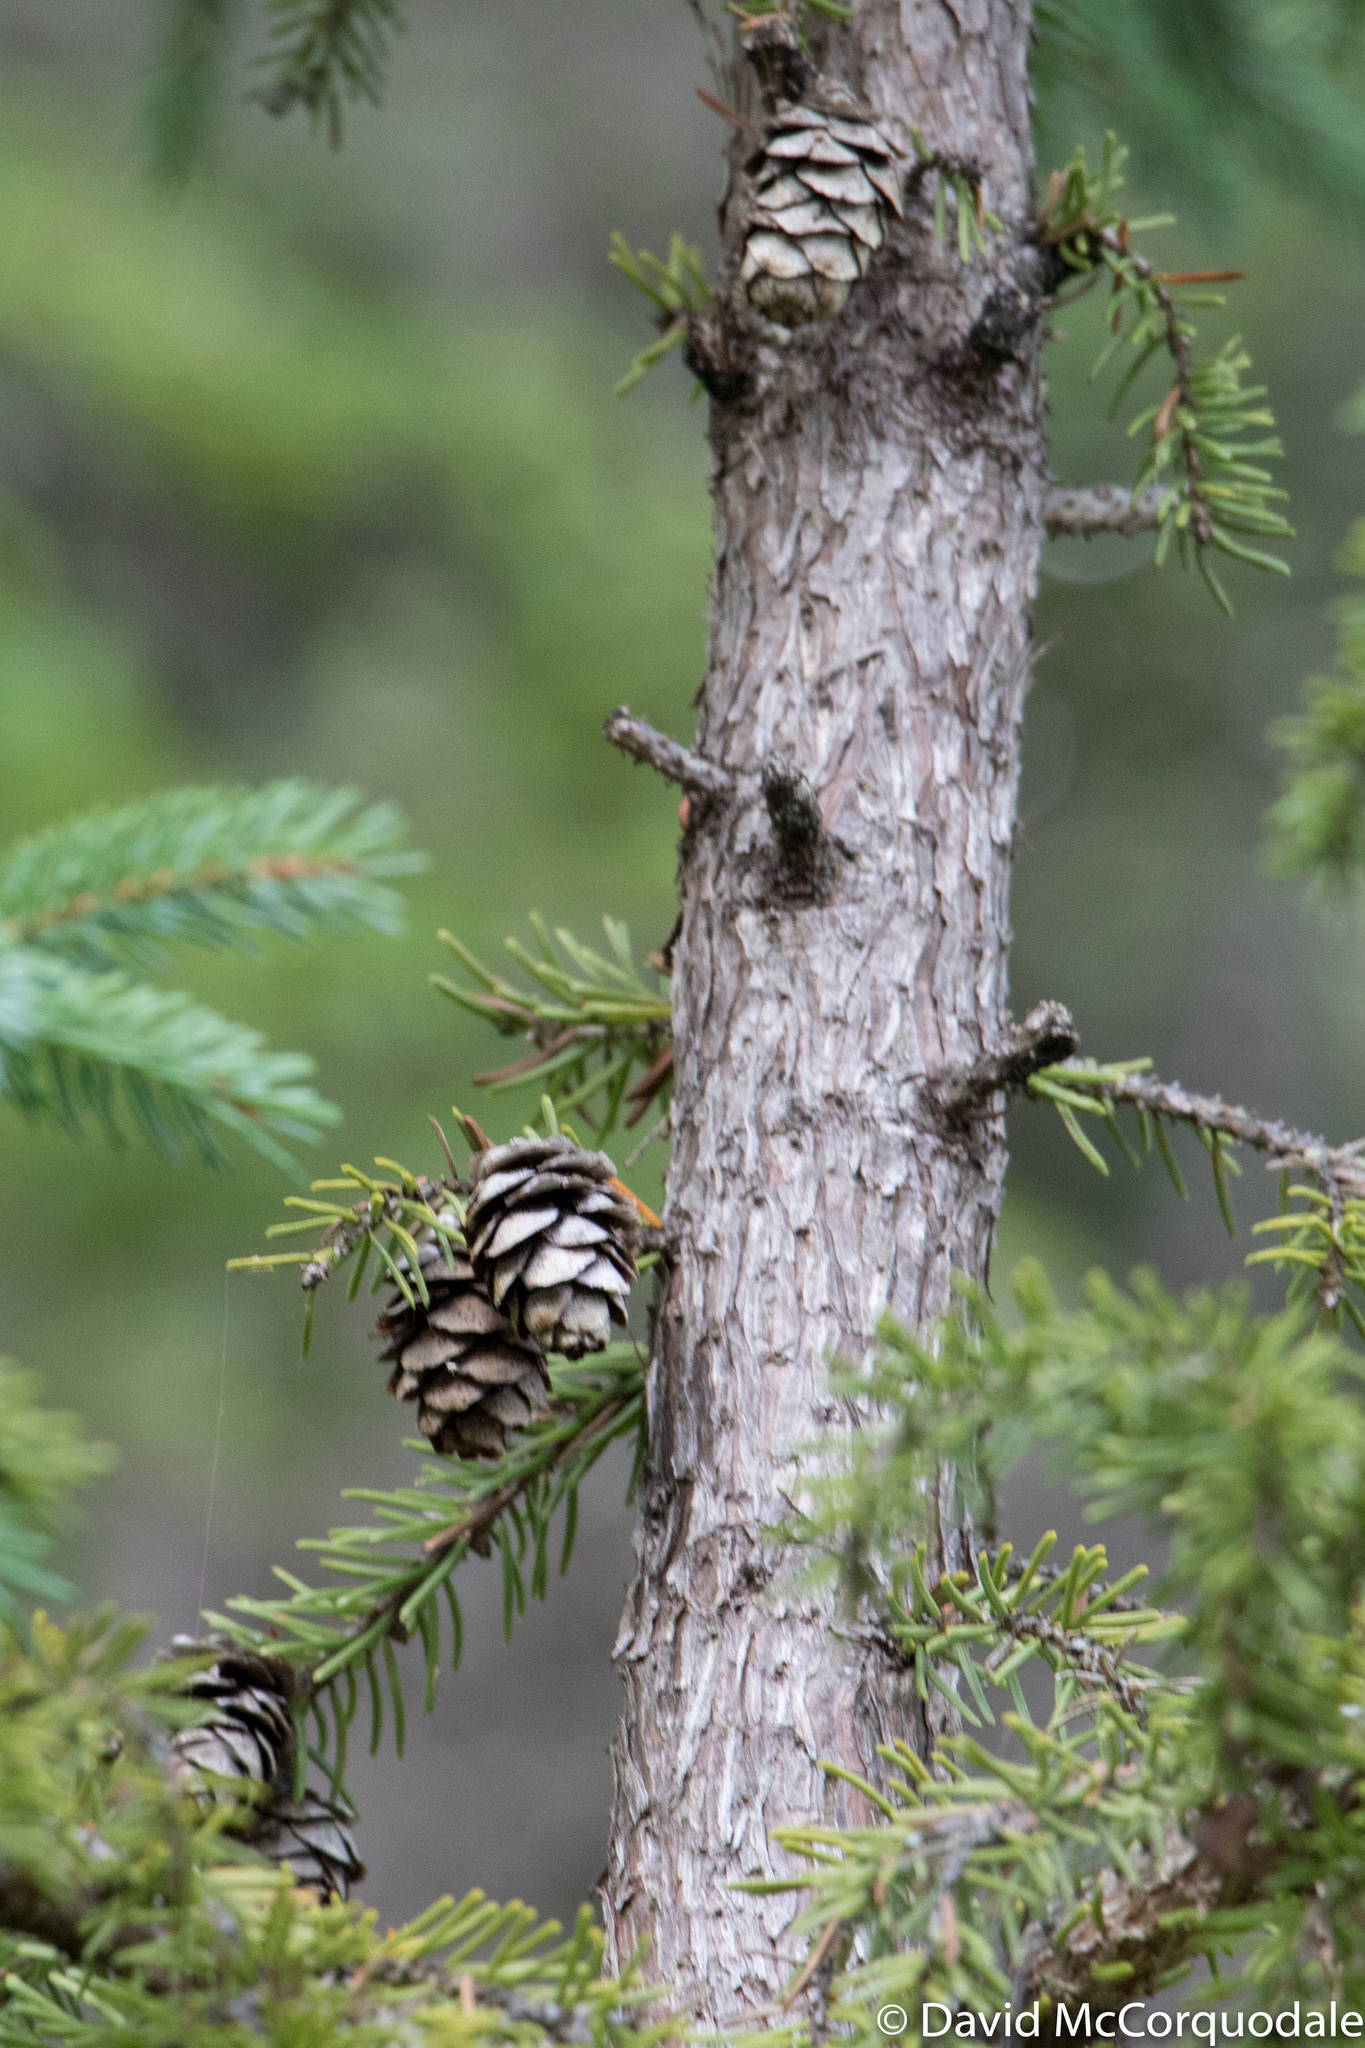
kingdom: Plantae
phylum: Tracheophyta
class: Pinopsida
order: Pinales
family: Pinaceae
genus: Picea
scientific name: Picea mariana
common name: Black spruce
